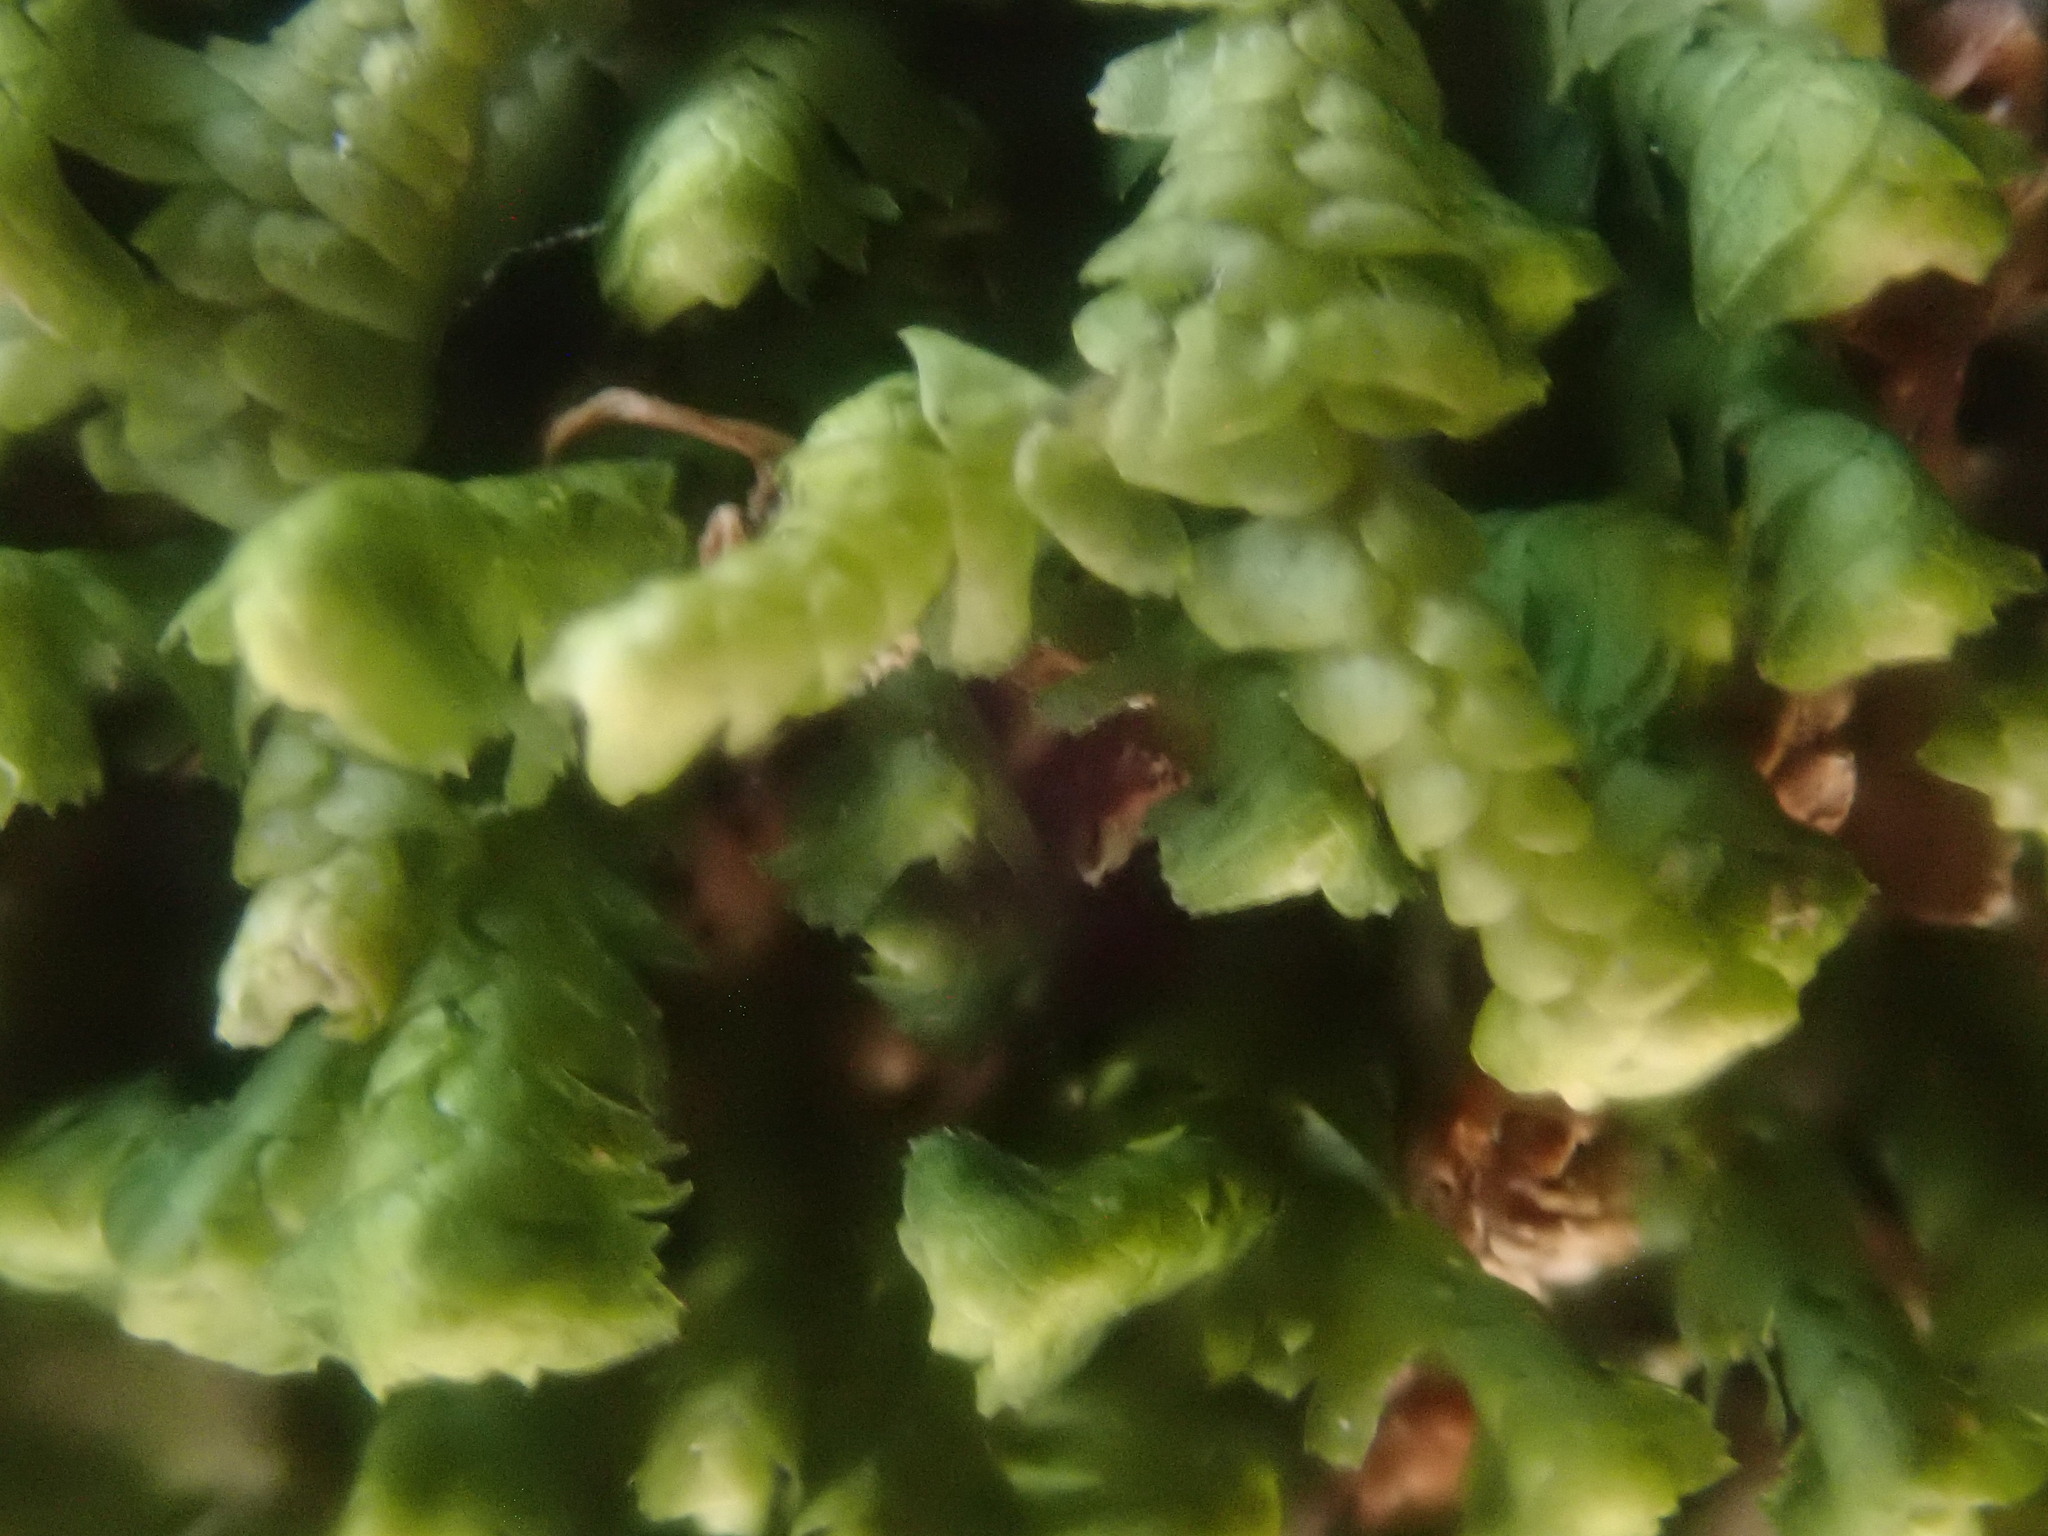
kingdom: Plantae
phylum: Marchantiophyta
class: Jungermanniopsida
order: Jungermanniales
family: Lepidoziaceae
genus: Bazzania
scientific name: Bazzania trilobata
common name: Three-lobed whipwort
